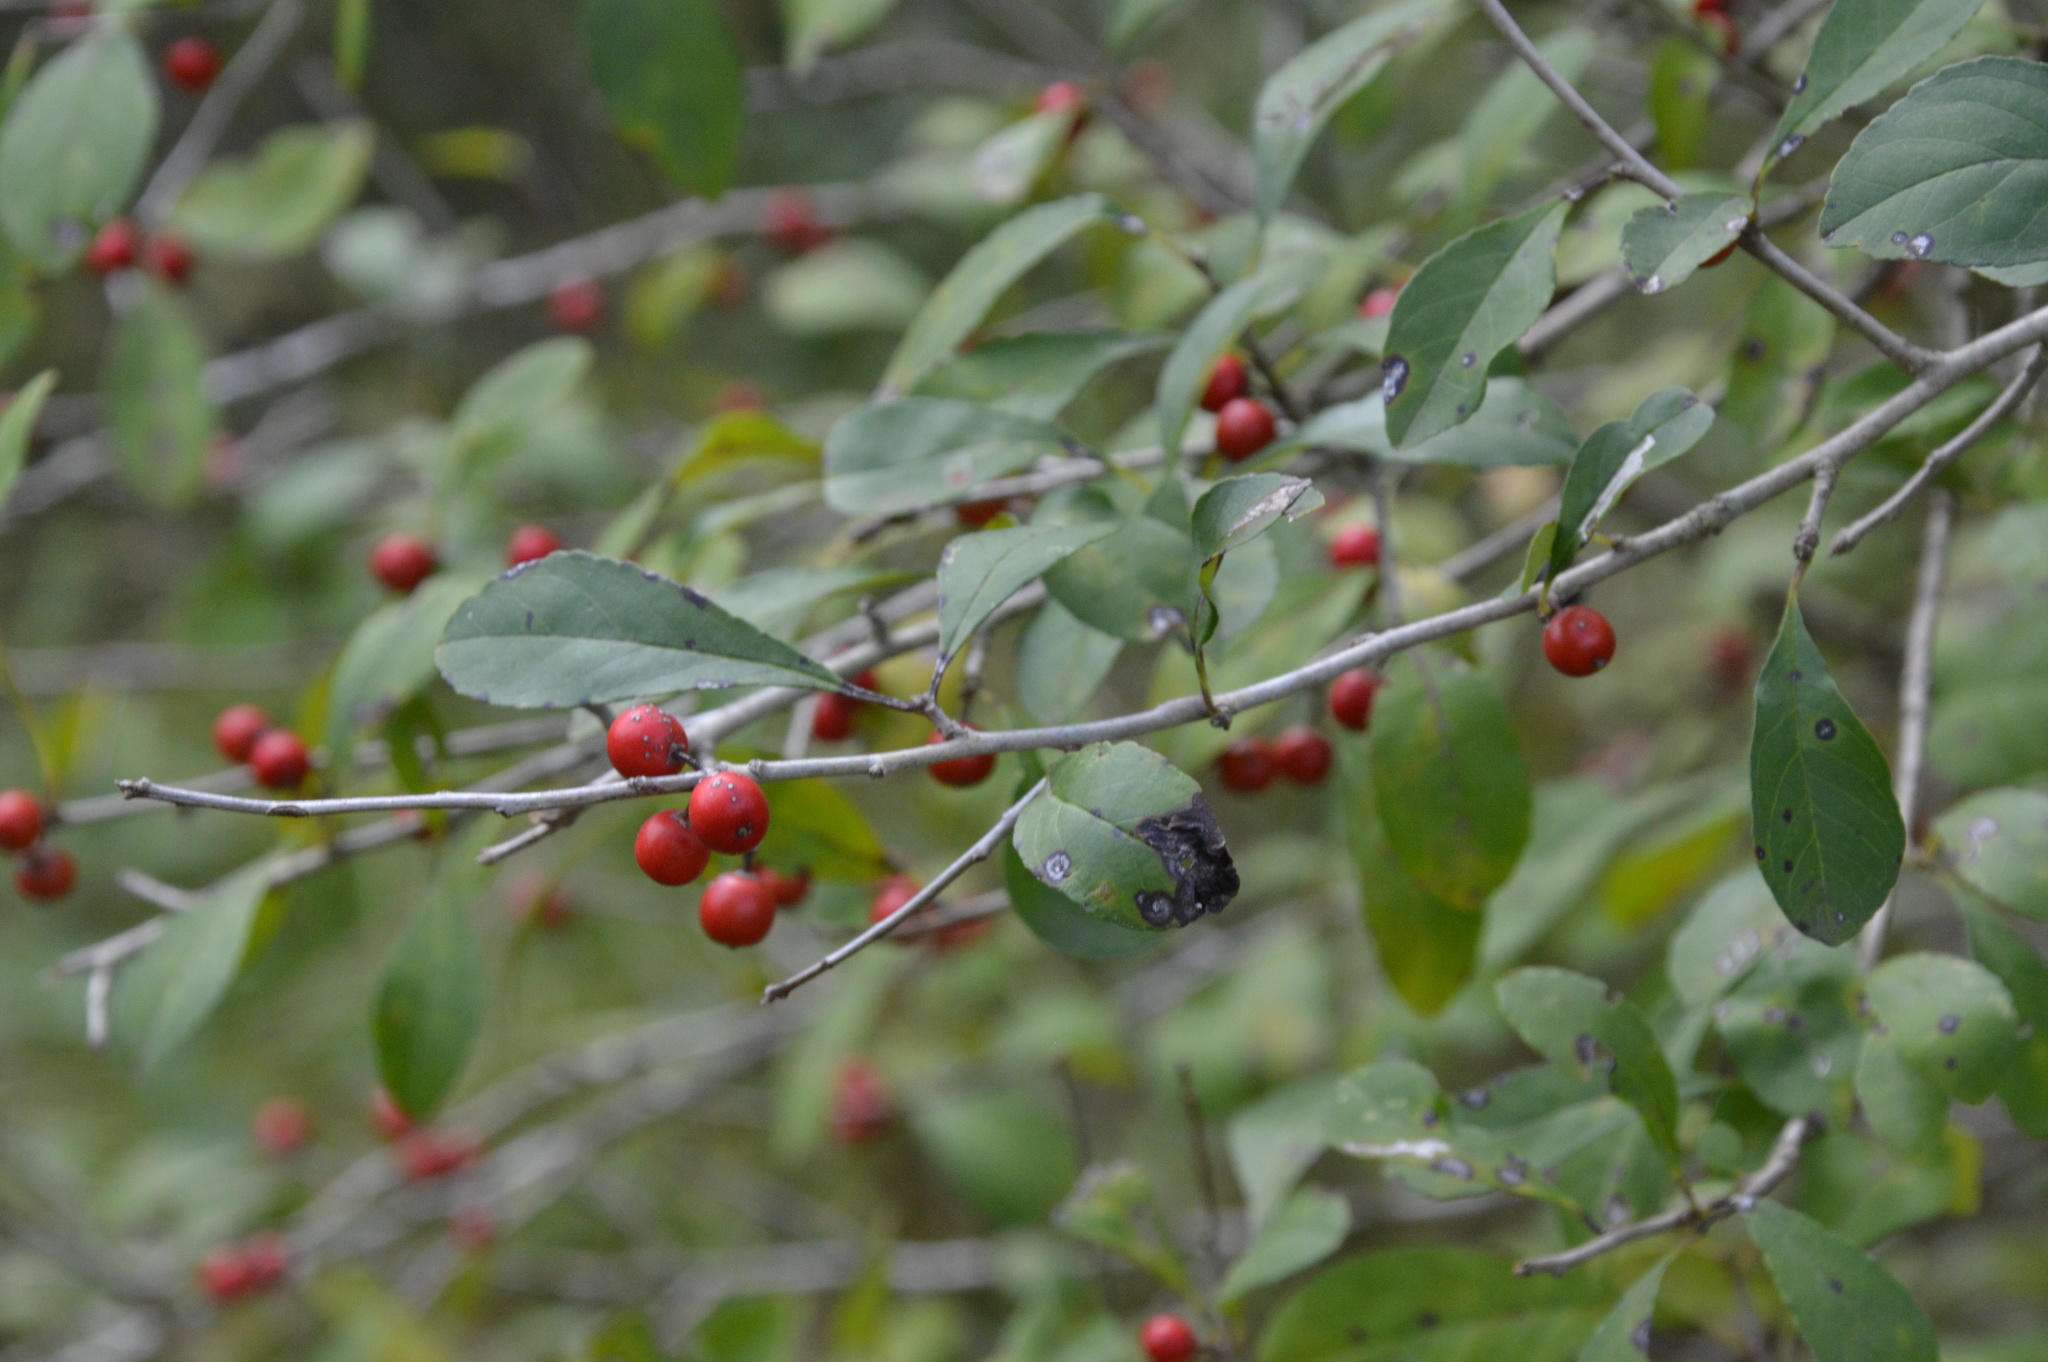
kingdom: Plantae
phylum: Tracheophyta
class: Magnoliopsida
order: Aquifoliales
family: Aquifoliaceae
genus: Ilex
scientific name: Ilex decidua
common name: Possum-haw
